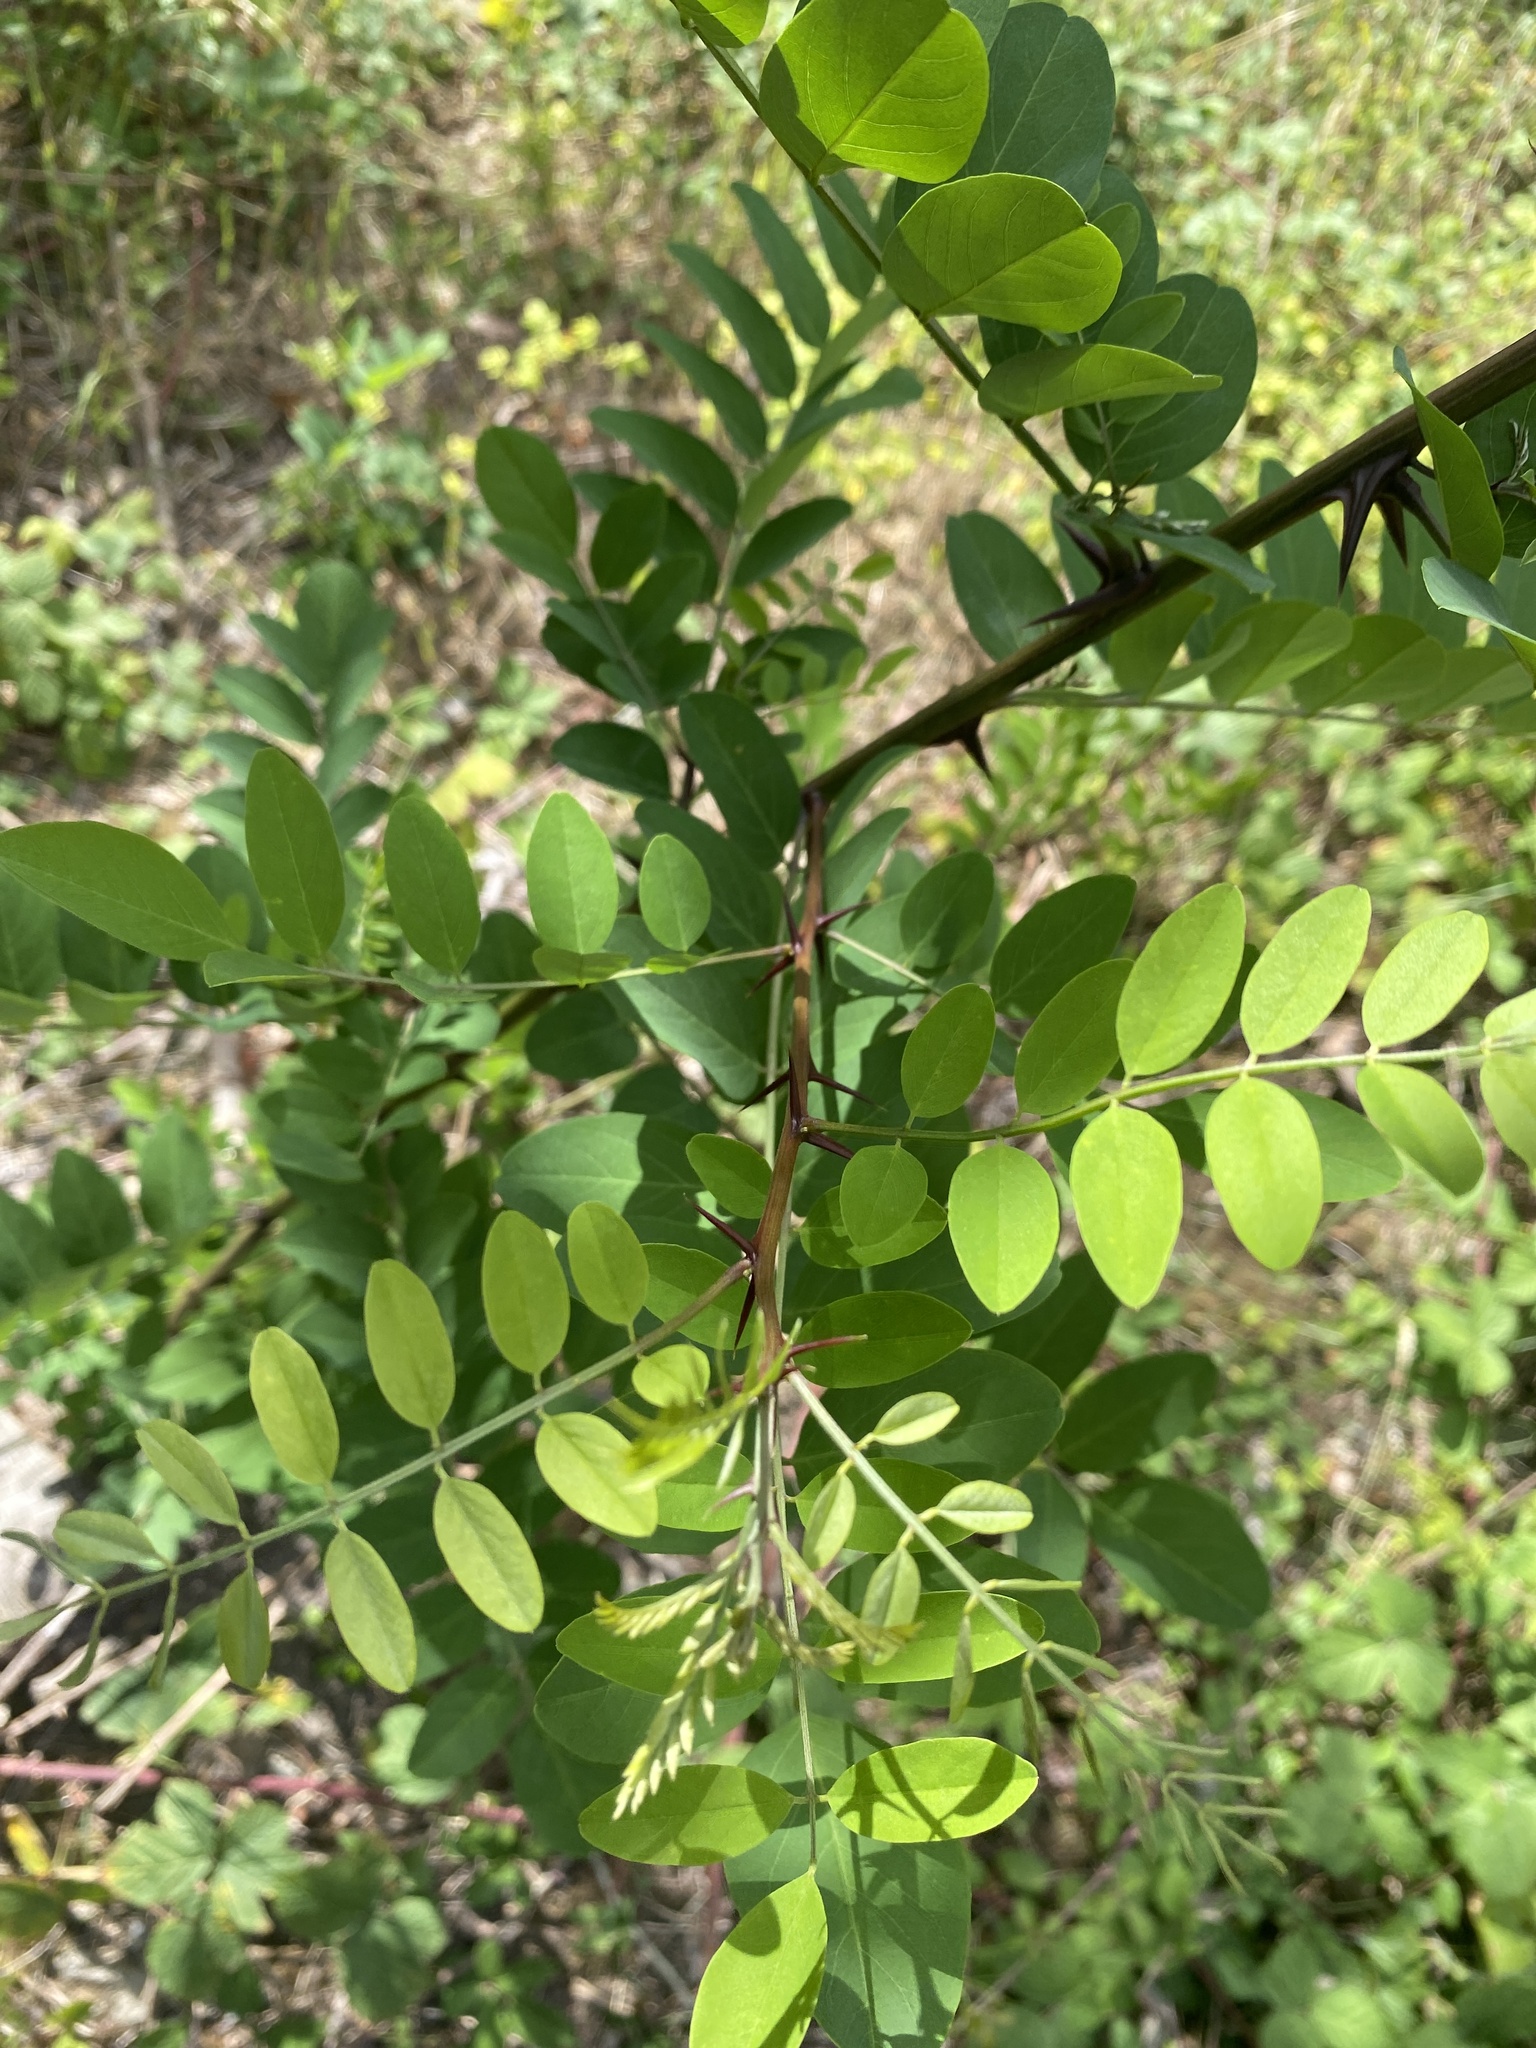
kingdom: Plantae
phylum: Tracheophyta
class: Magnoliopsida
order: Fabales
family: Fabaceae
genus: Robinia
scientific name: Robinia pseudoacacia
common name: Black locust
